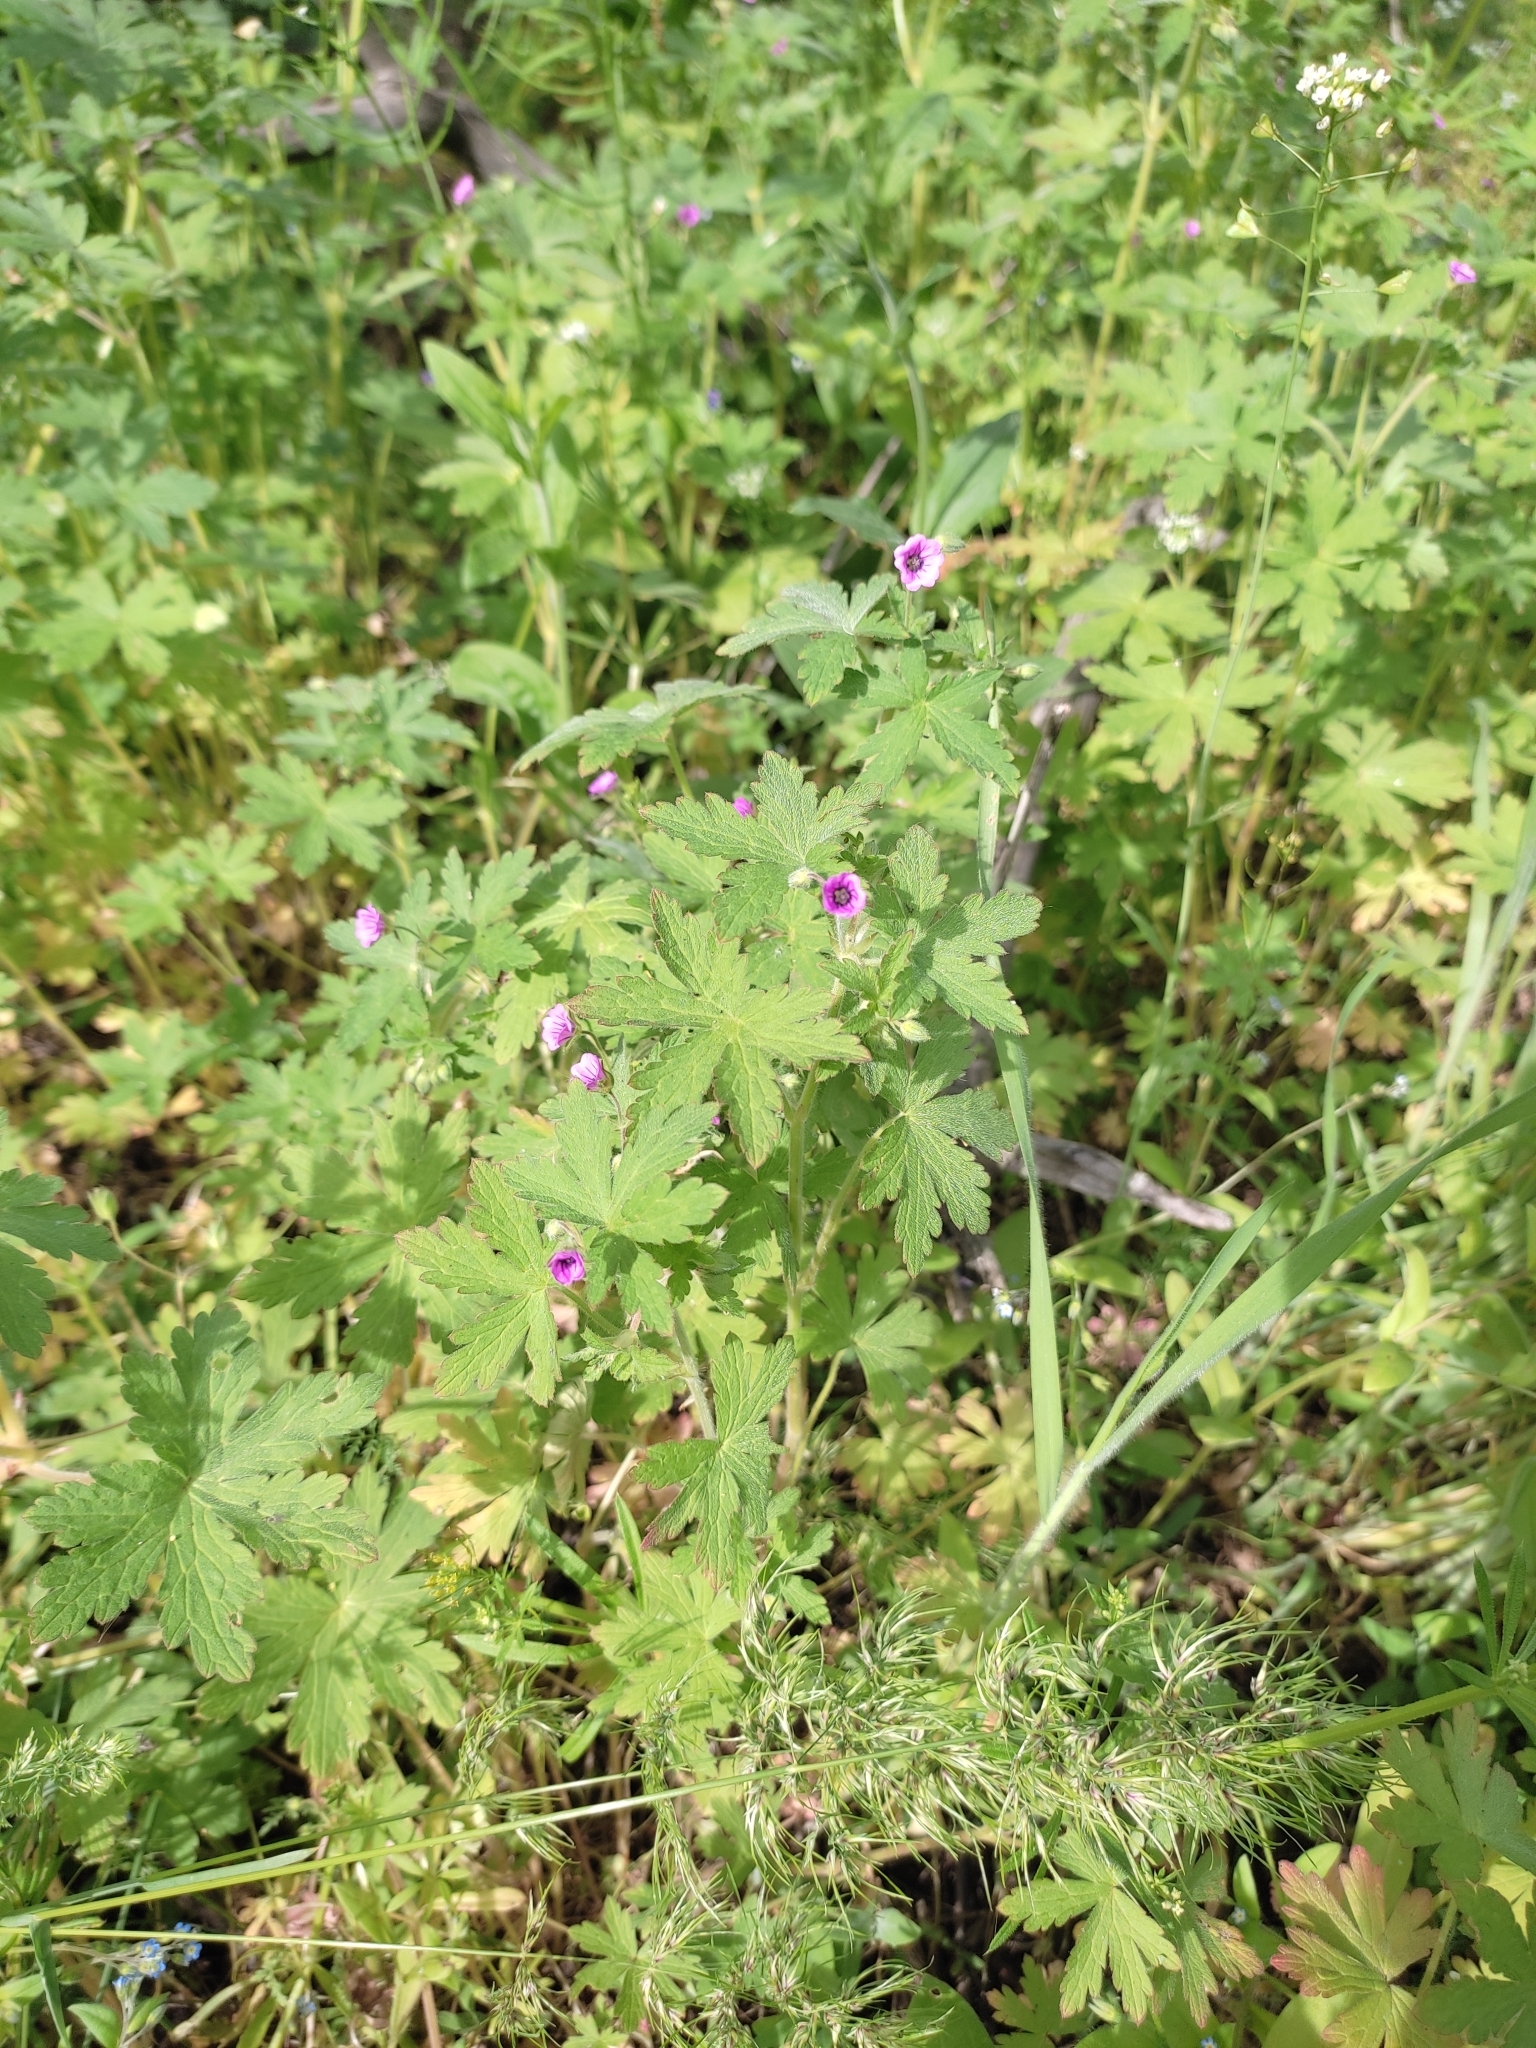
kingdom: Plantae
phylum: Tracheophyta
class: Magnoliopsida
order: Geraniales
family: Geraniaceae
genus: Geranium
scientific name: Geranium divaricatum
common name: Spreading crane's-bill
